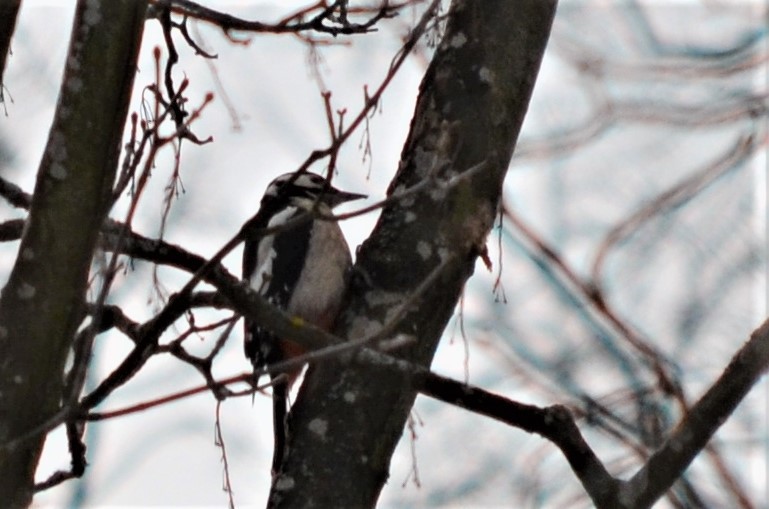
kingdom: Animalia
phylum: Chordata
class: Aves
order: Piciformes
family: Picidae
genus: Dendrocopos
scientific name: Dendrocopos major
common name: Great spotted woodpecker
